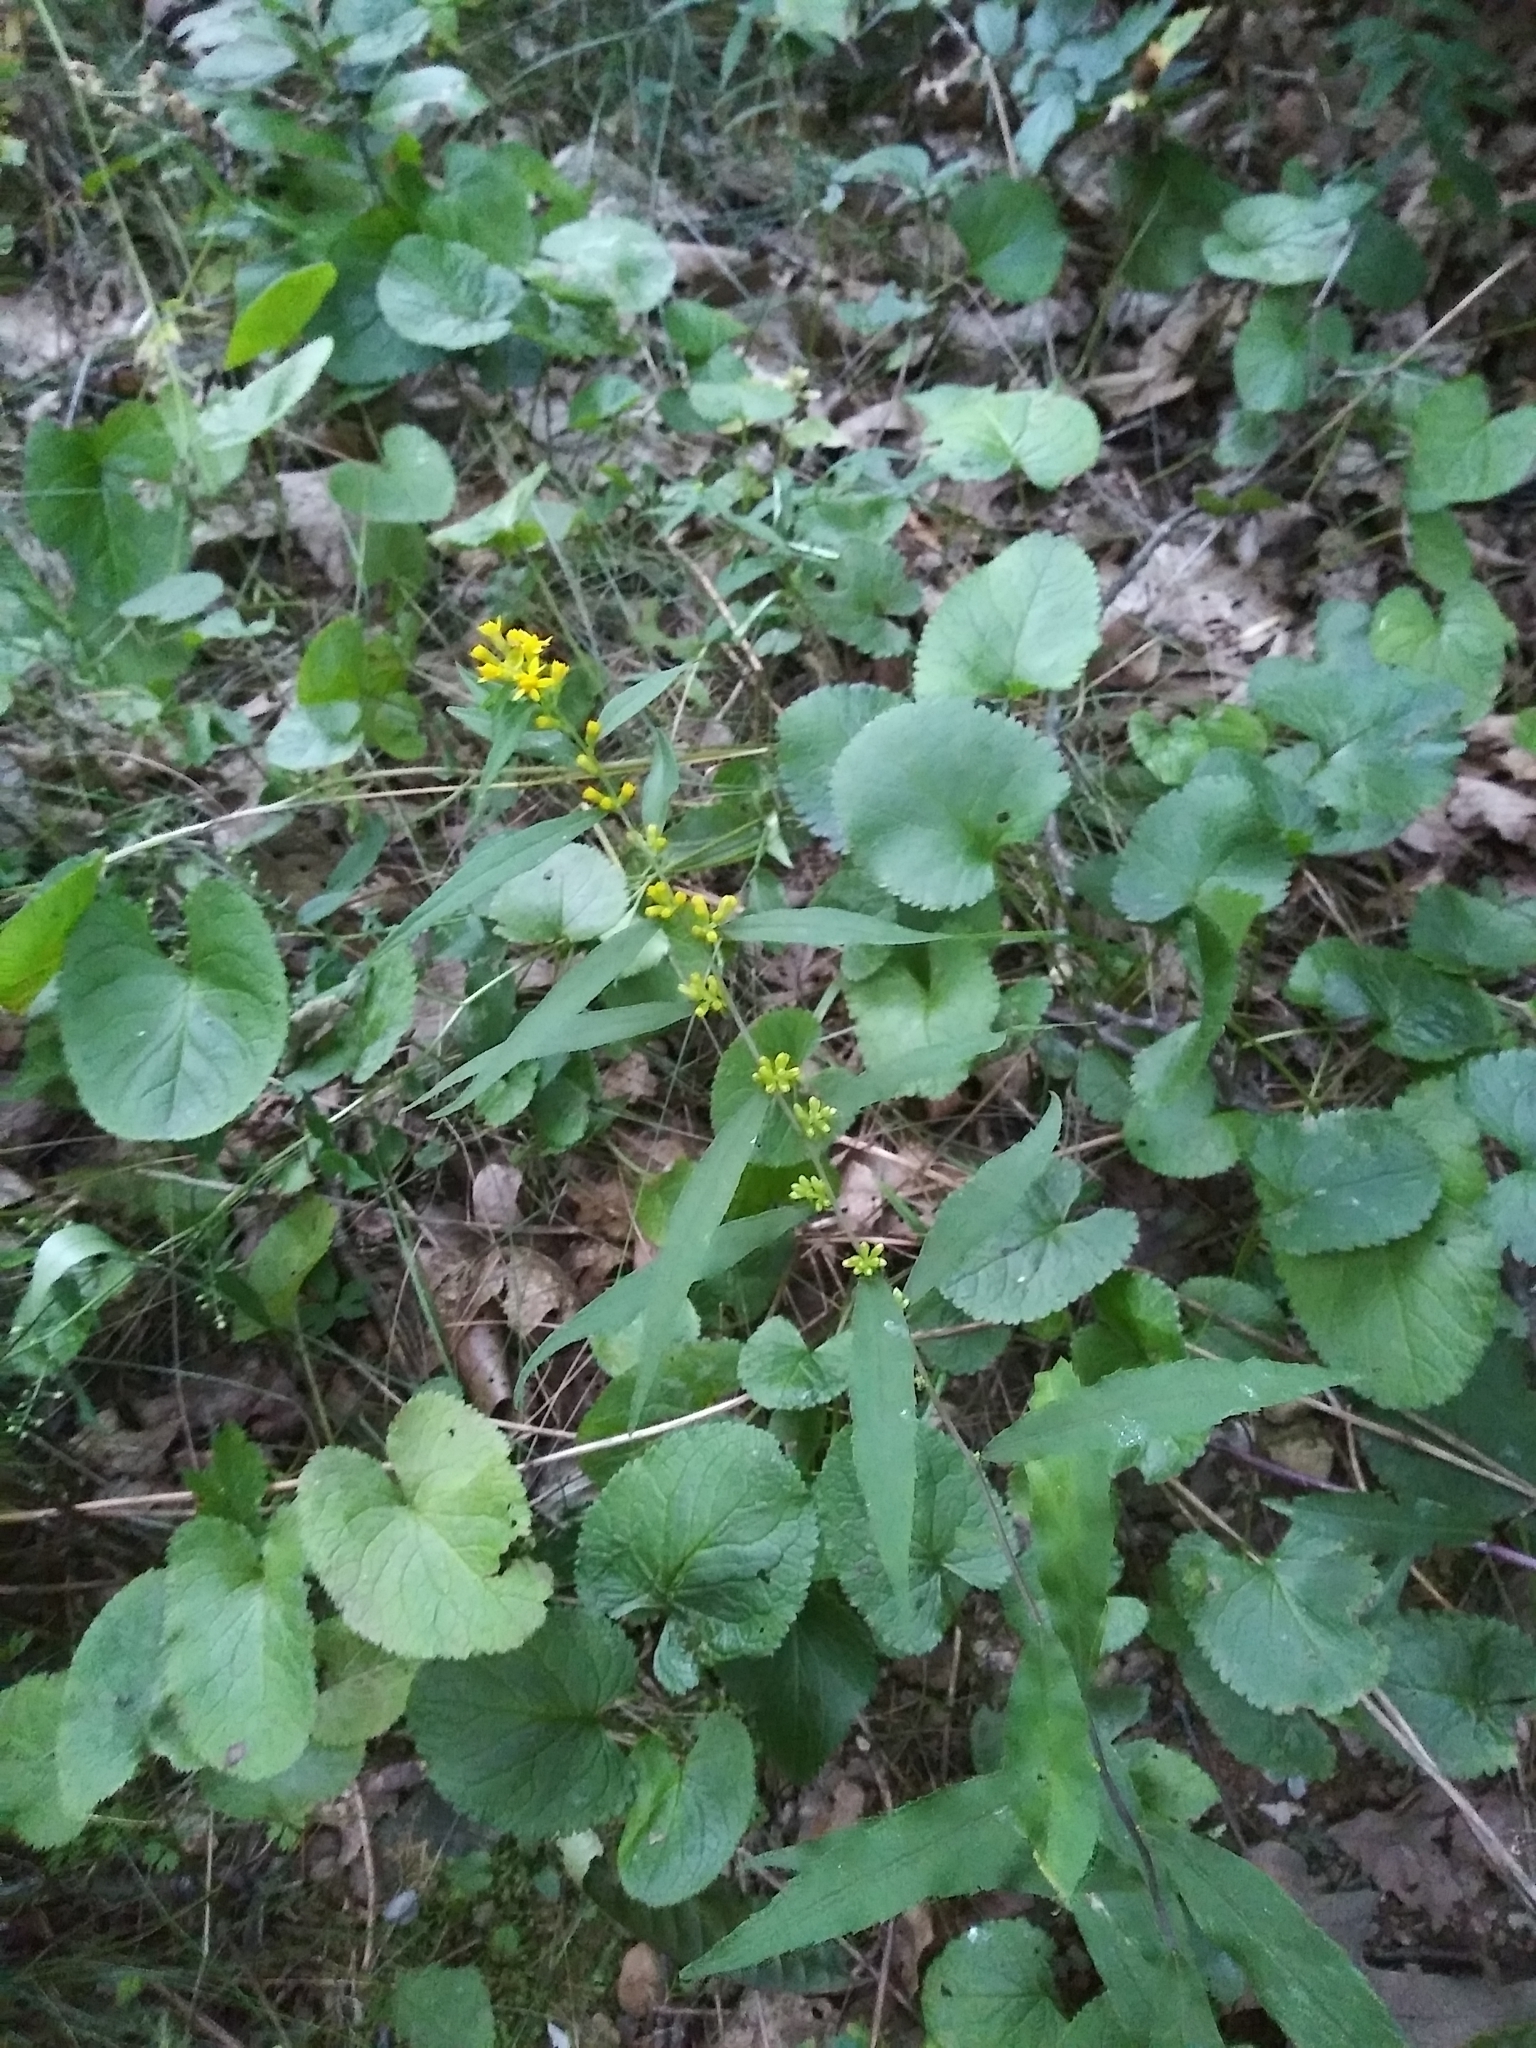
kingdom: Plantae
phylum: Tracheophyta
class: Magnoliopsida
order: Asterales
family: Asteraceae
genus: Solidago
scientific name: Solidago caesia
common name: Woodland goldenrod
